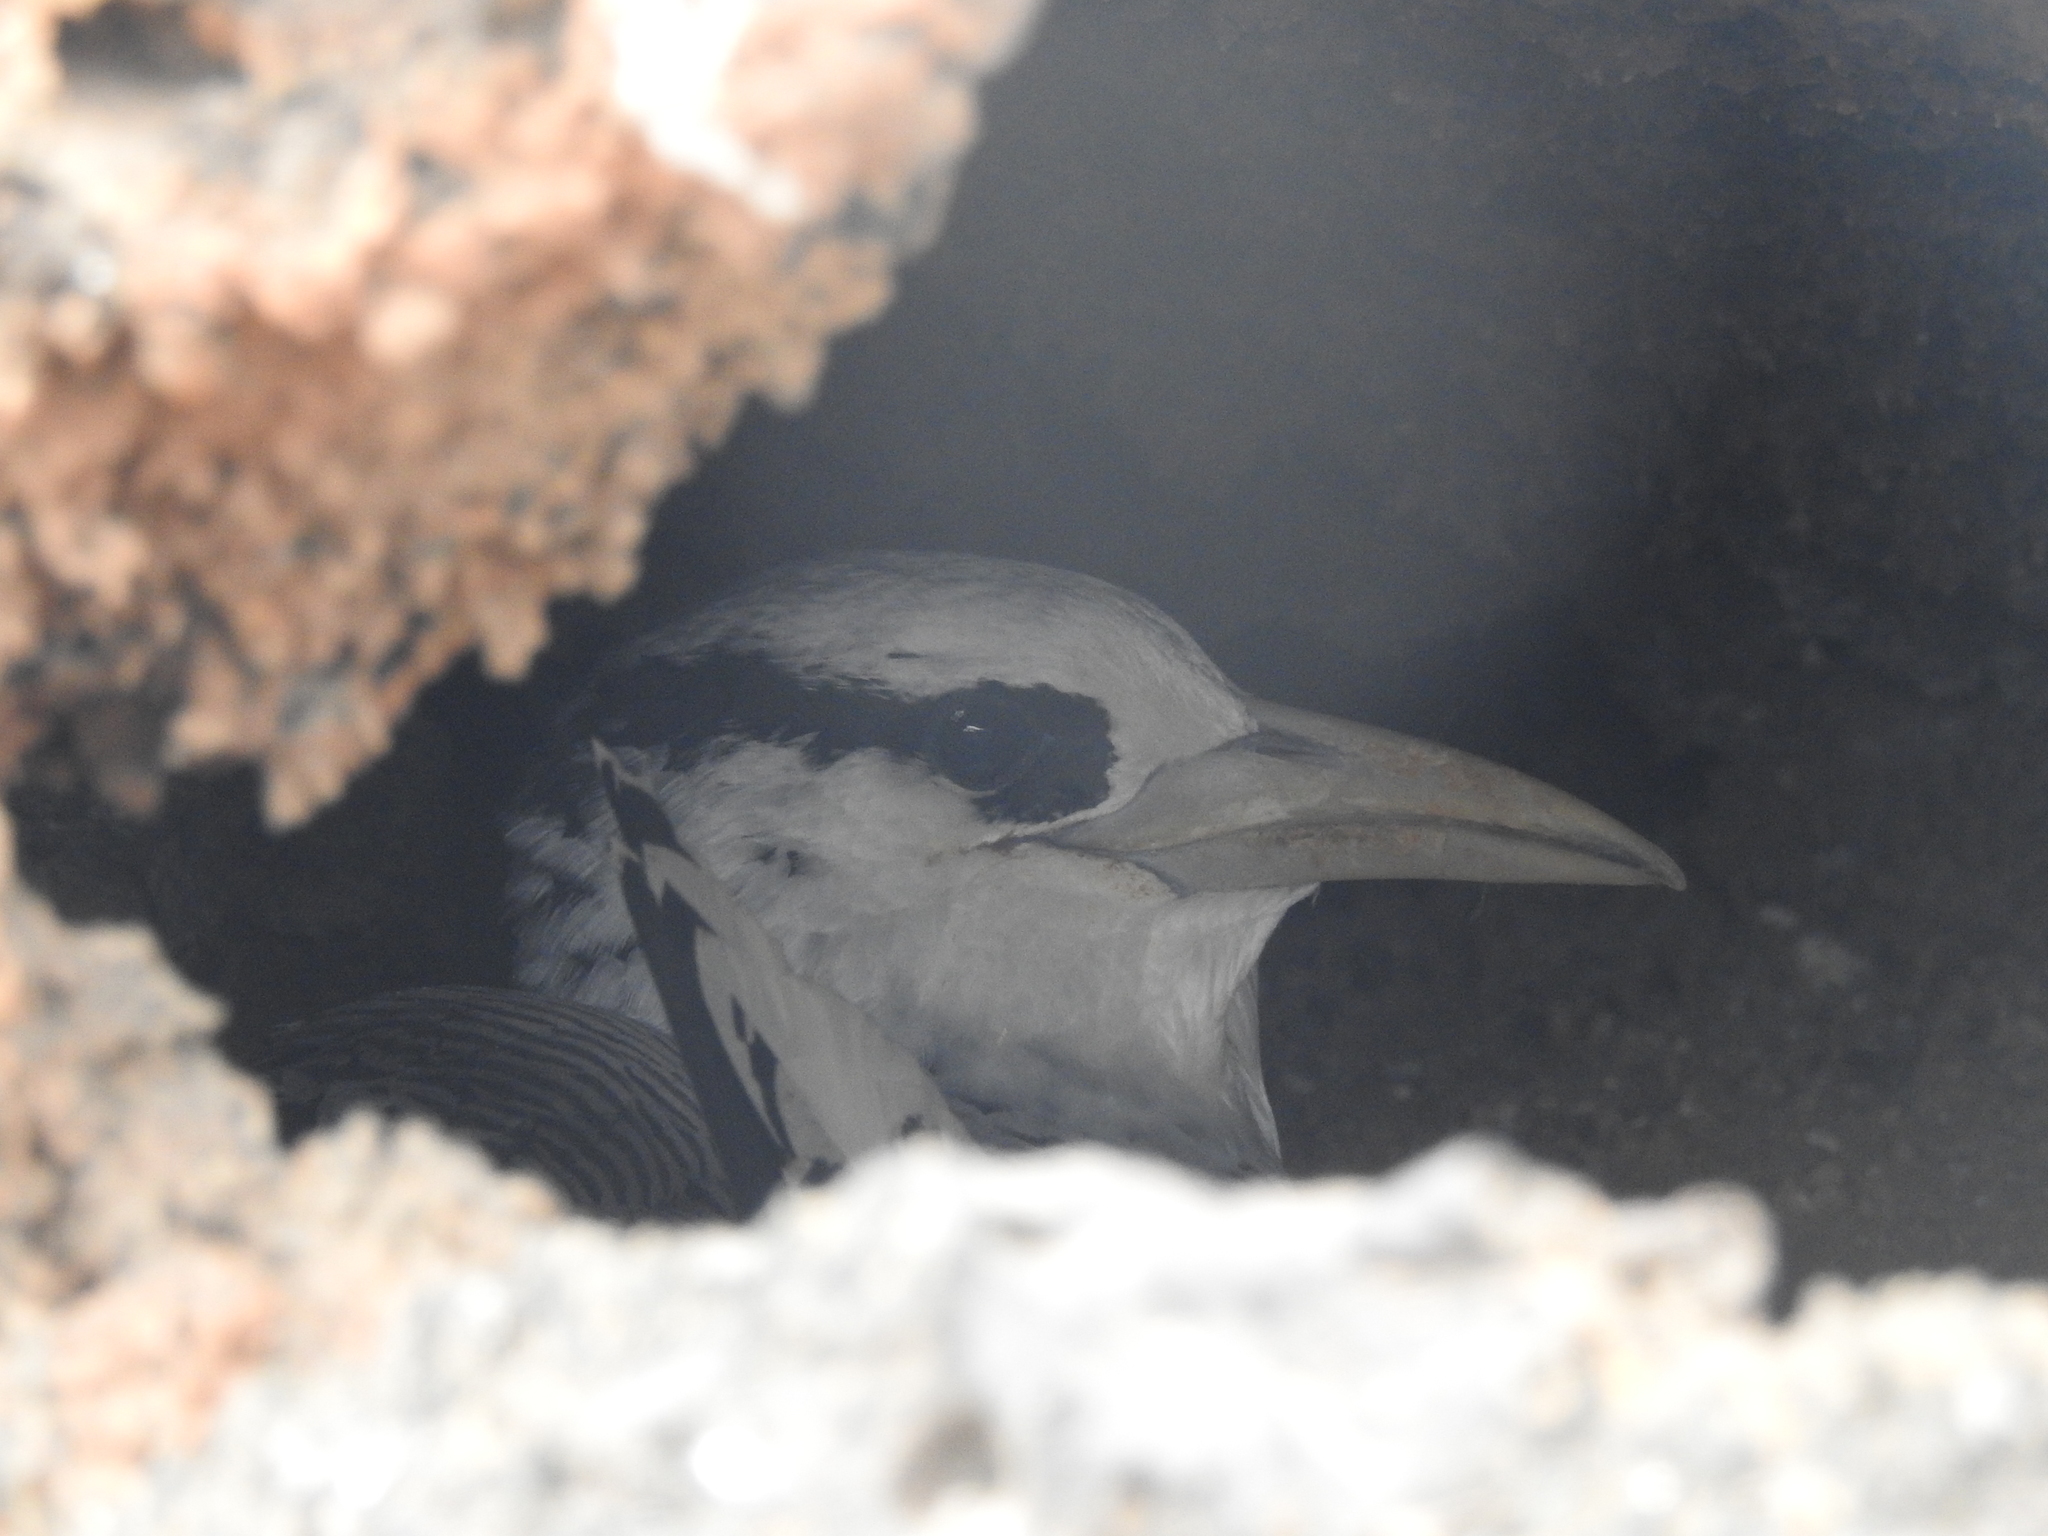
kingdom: Animalia
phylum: Chordata
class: Aves
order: Phaethontiformes
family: Phaethontidae
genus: Phaethon
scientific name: Phaethon aethereus
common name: Red-billed tropicbird
